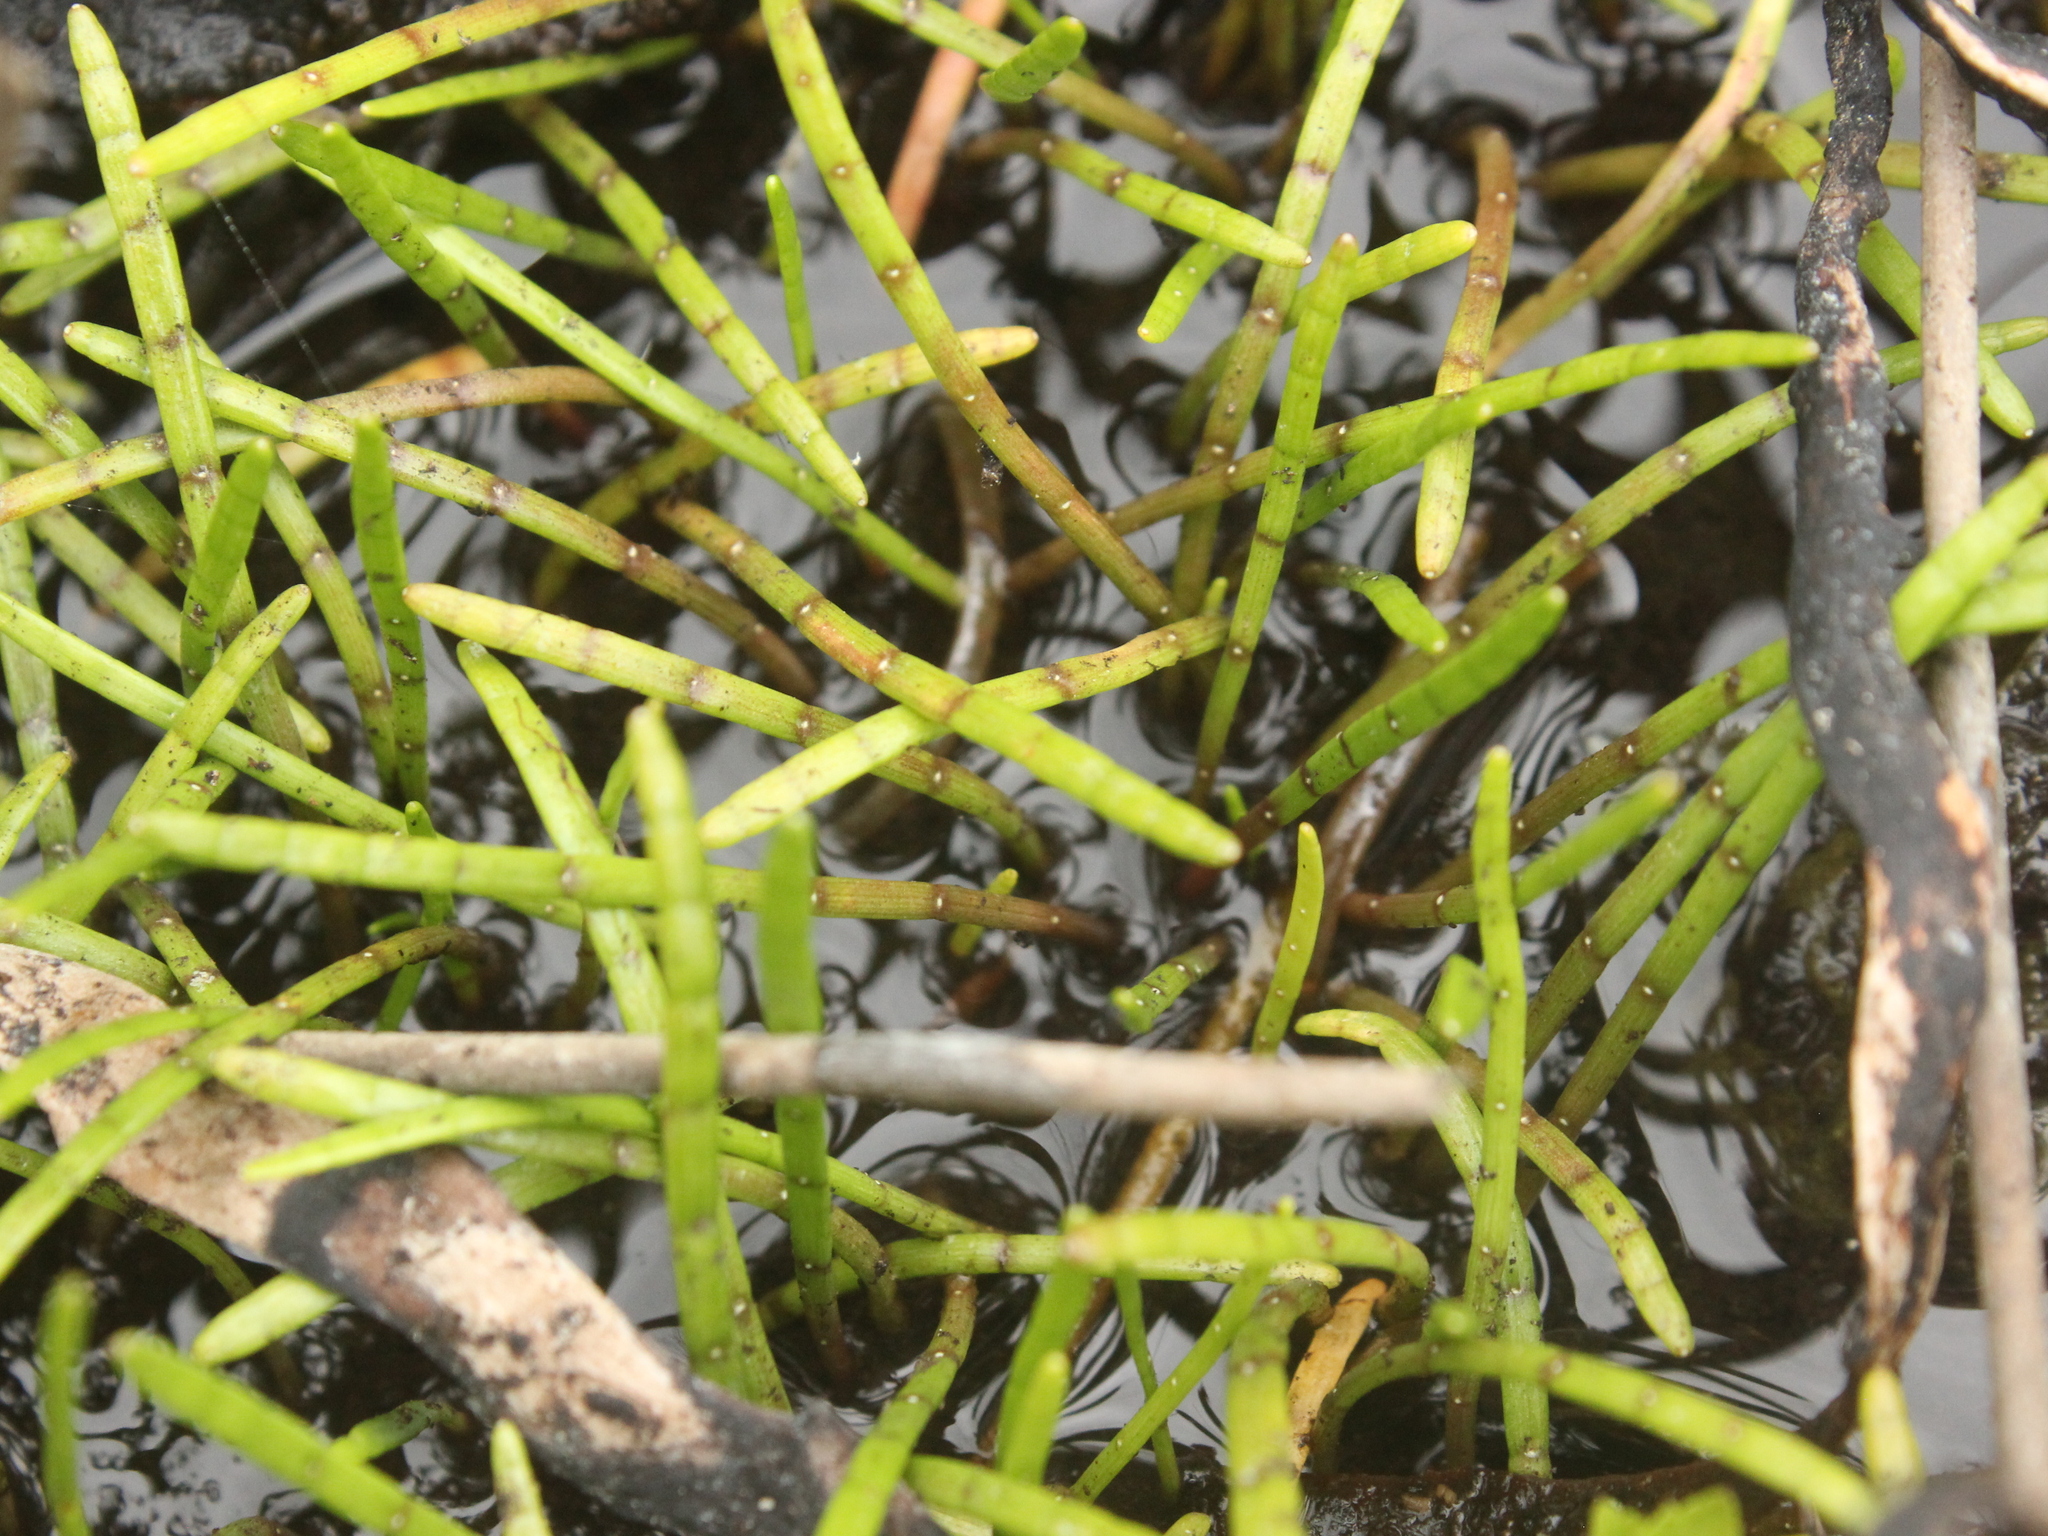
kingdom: Plantae
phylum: Tracheophyta
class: Magnoliopsida
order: Apiales
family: Apiaceae
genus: Lilaeopsis
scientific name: Lilaeopsis novae-zelandiae
